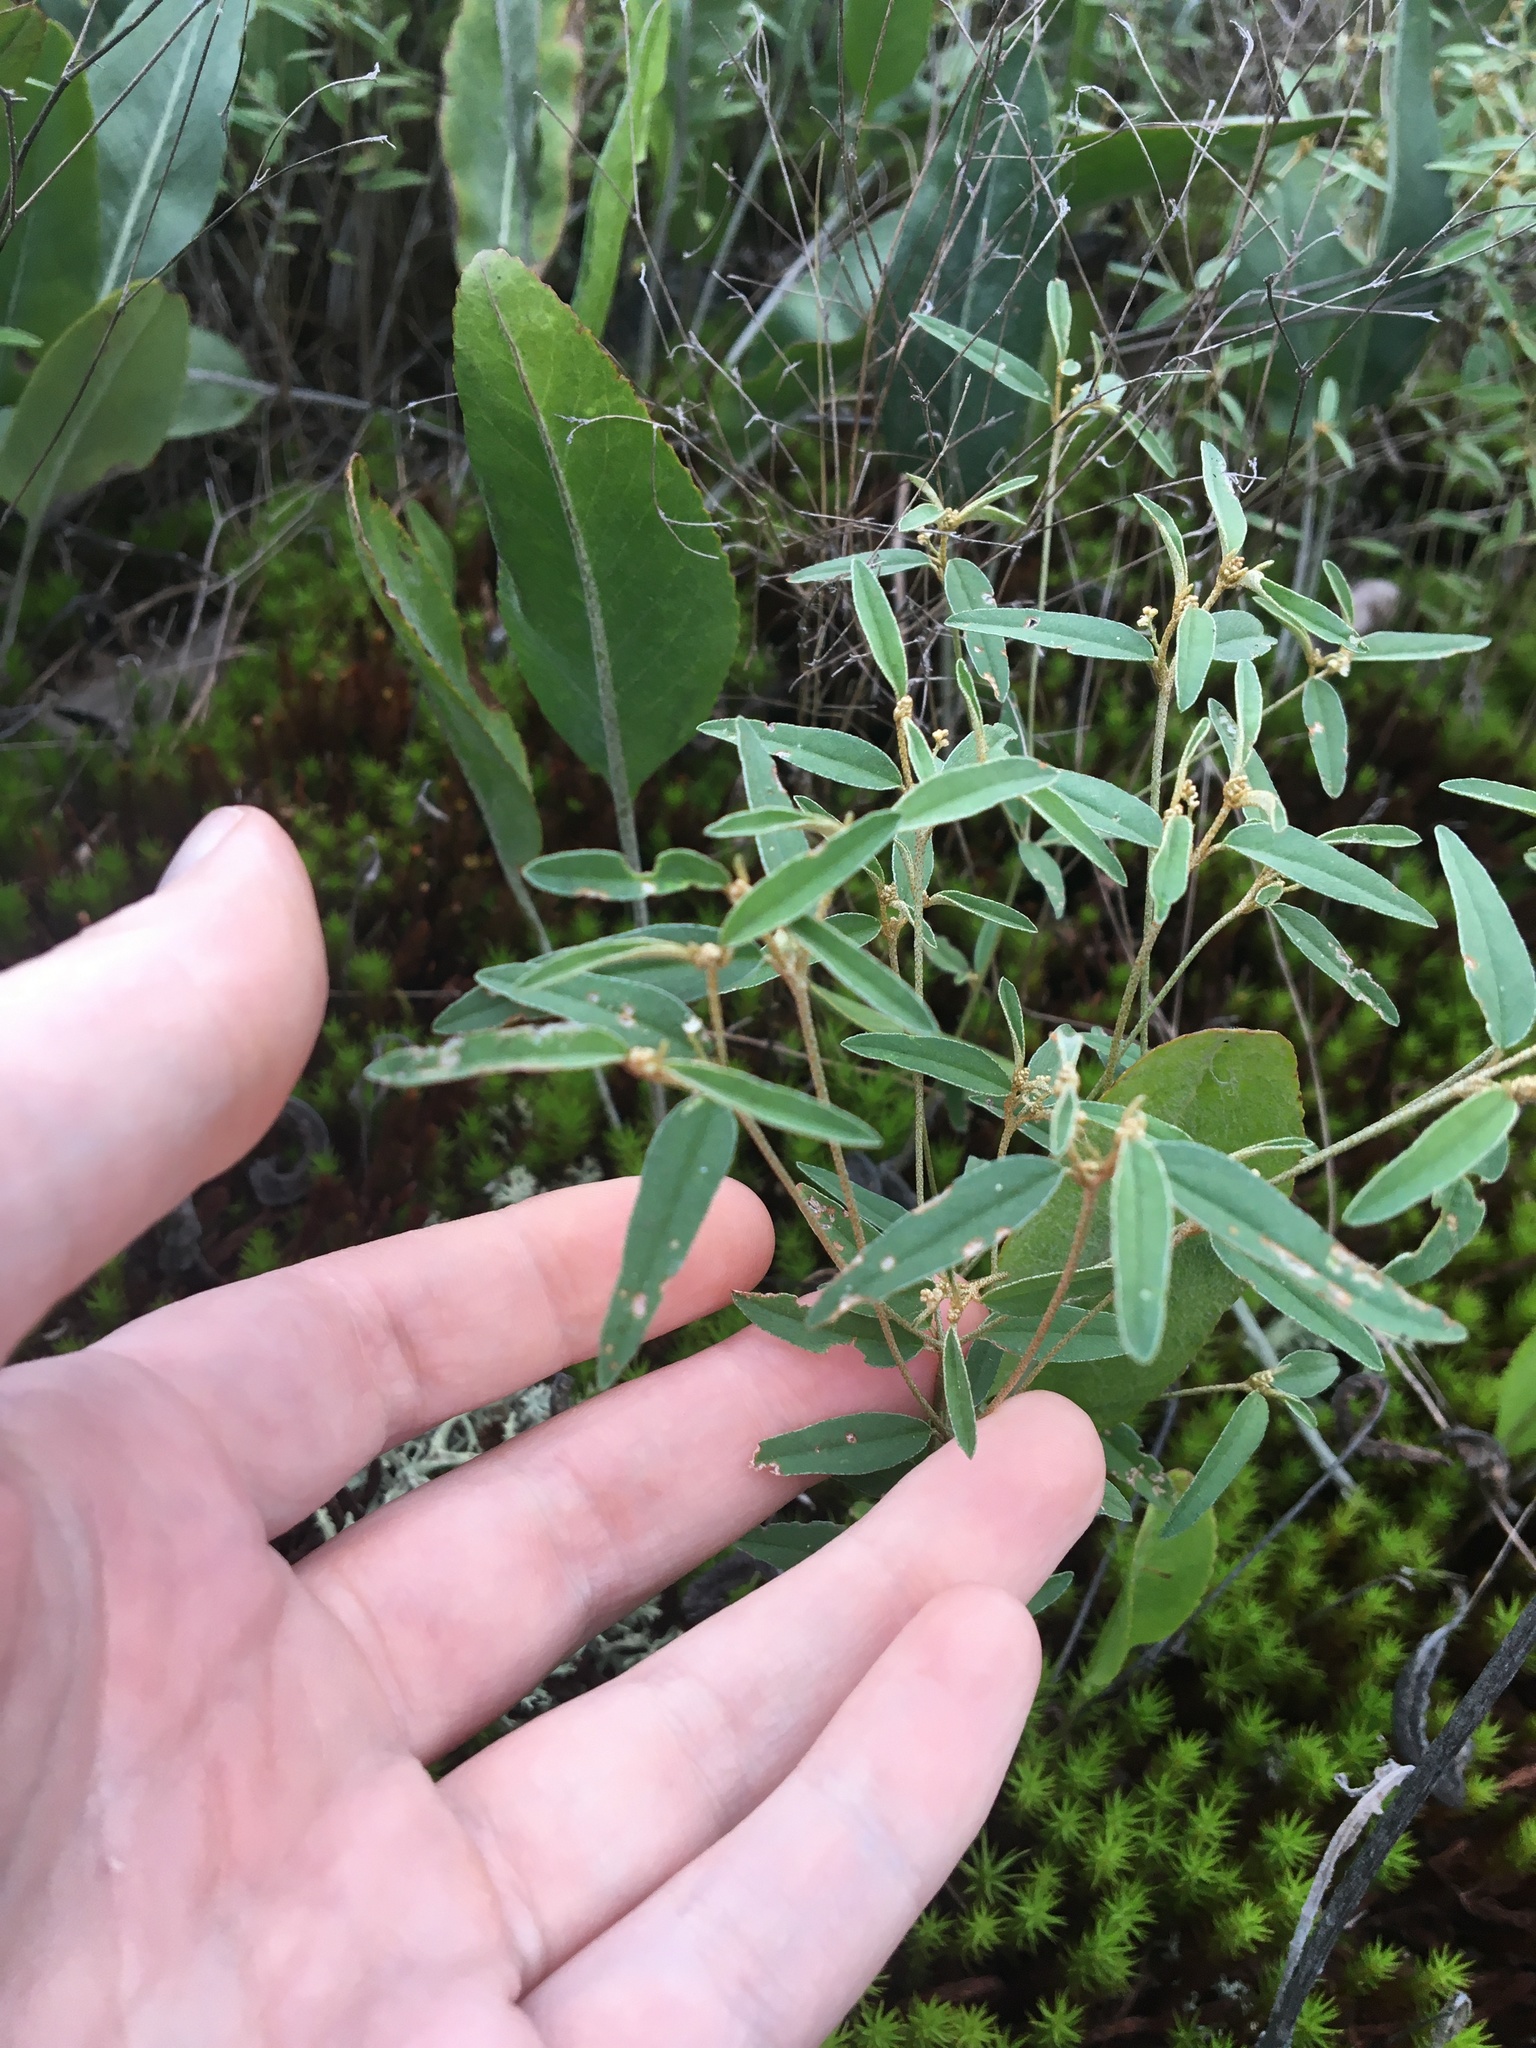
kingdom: Plantae
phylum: Tracheophyta
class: Magnoliopsida
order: Malpighiales
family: Euphorbiaceae
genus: Croton
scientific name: Croton michauxii
